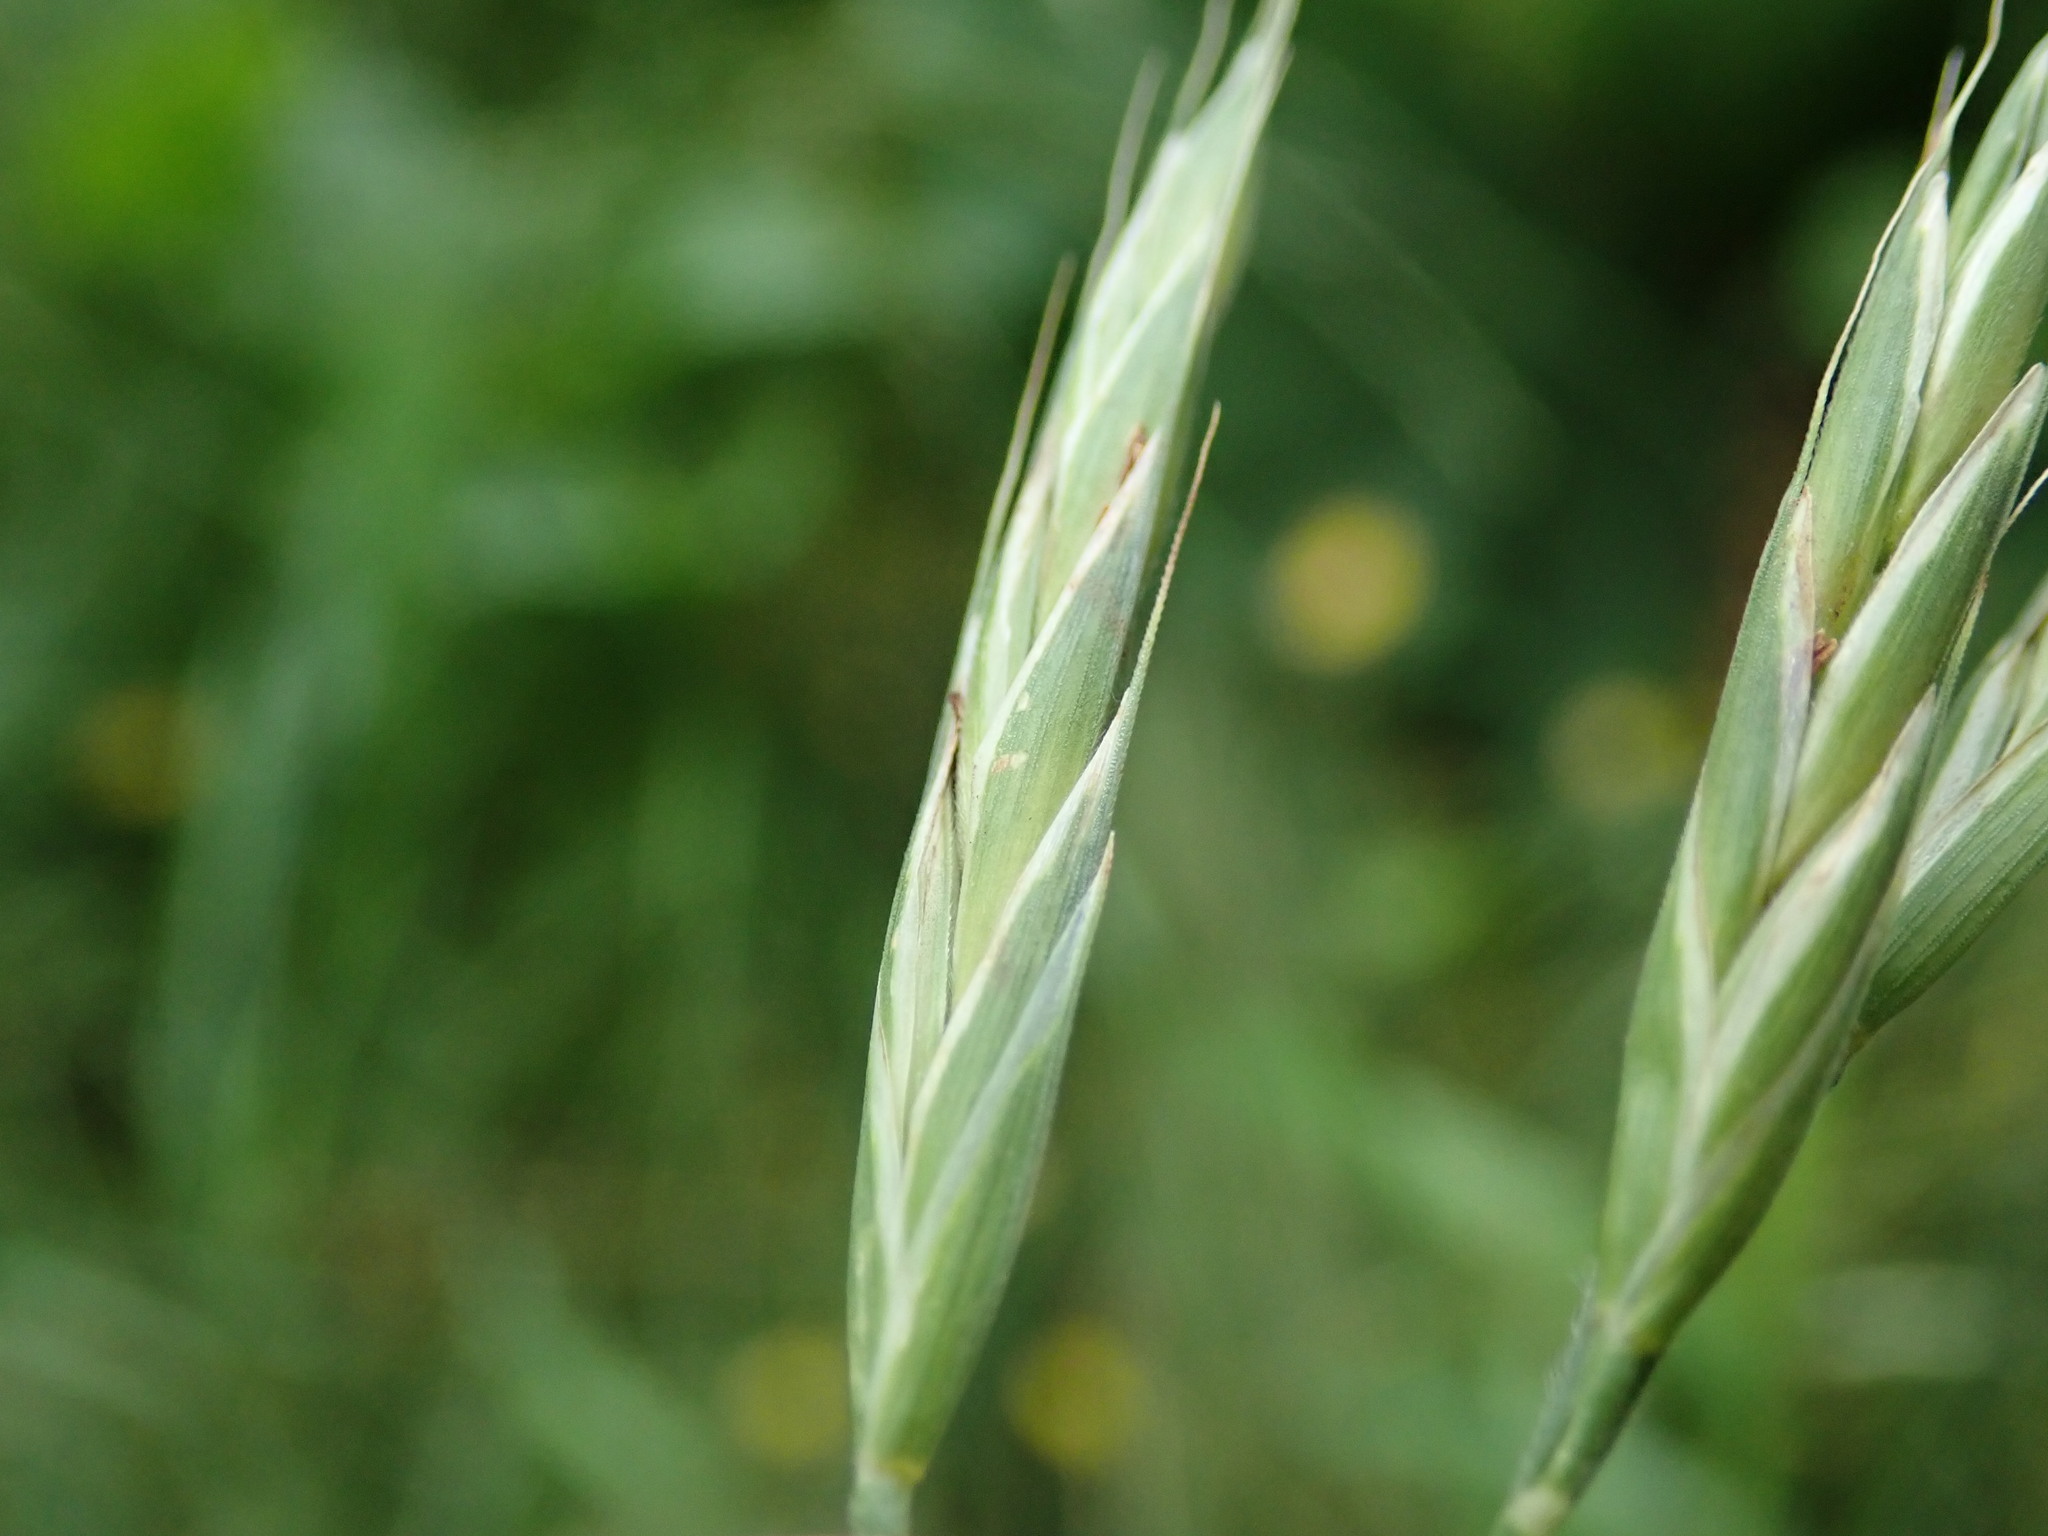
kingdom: Plantae
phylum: Tracheophyta
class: Liliopsida
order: Poales
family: Poaceae
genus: Bromus
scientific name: Bromus carinatus
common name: Mountain brome
